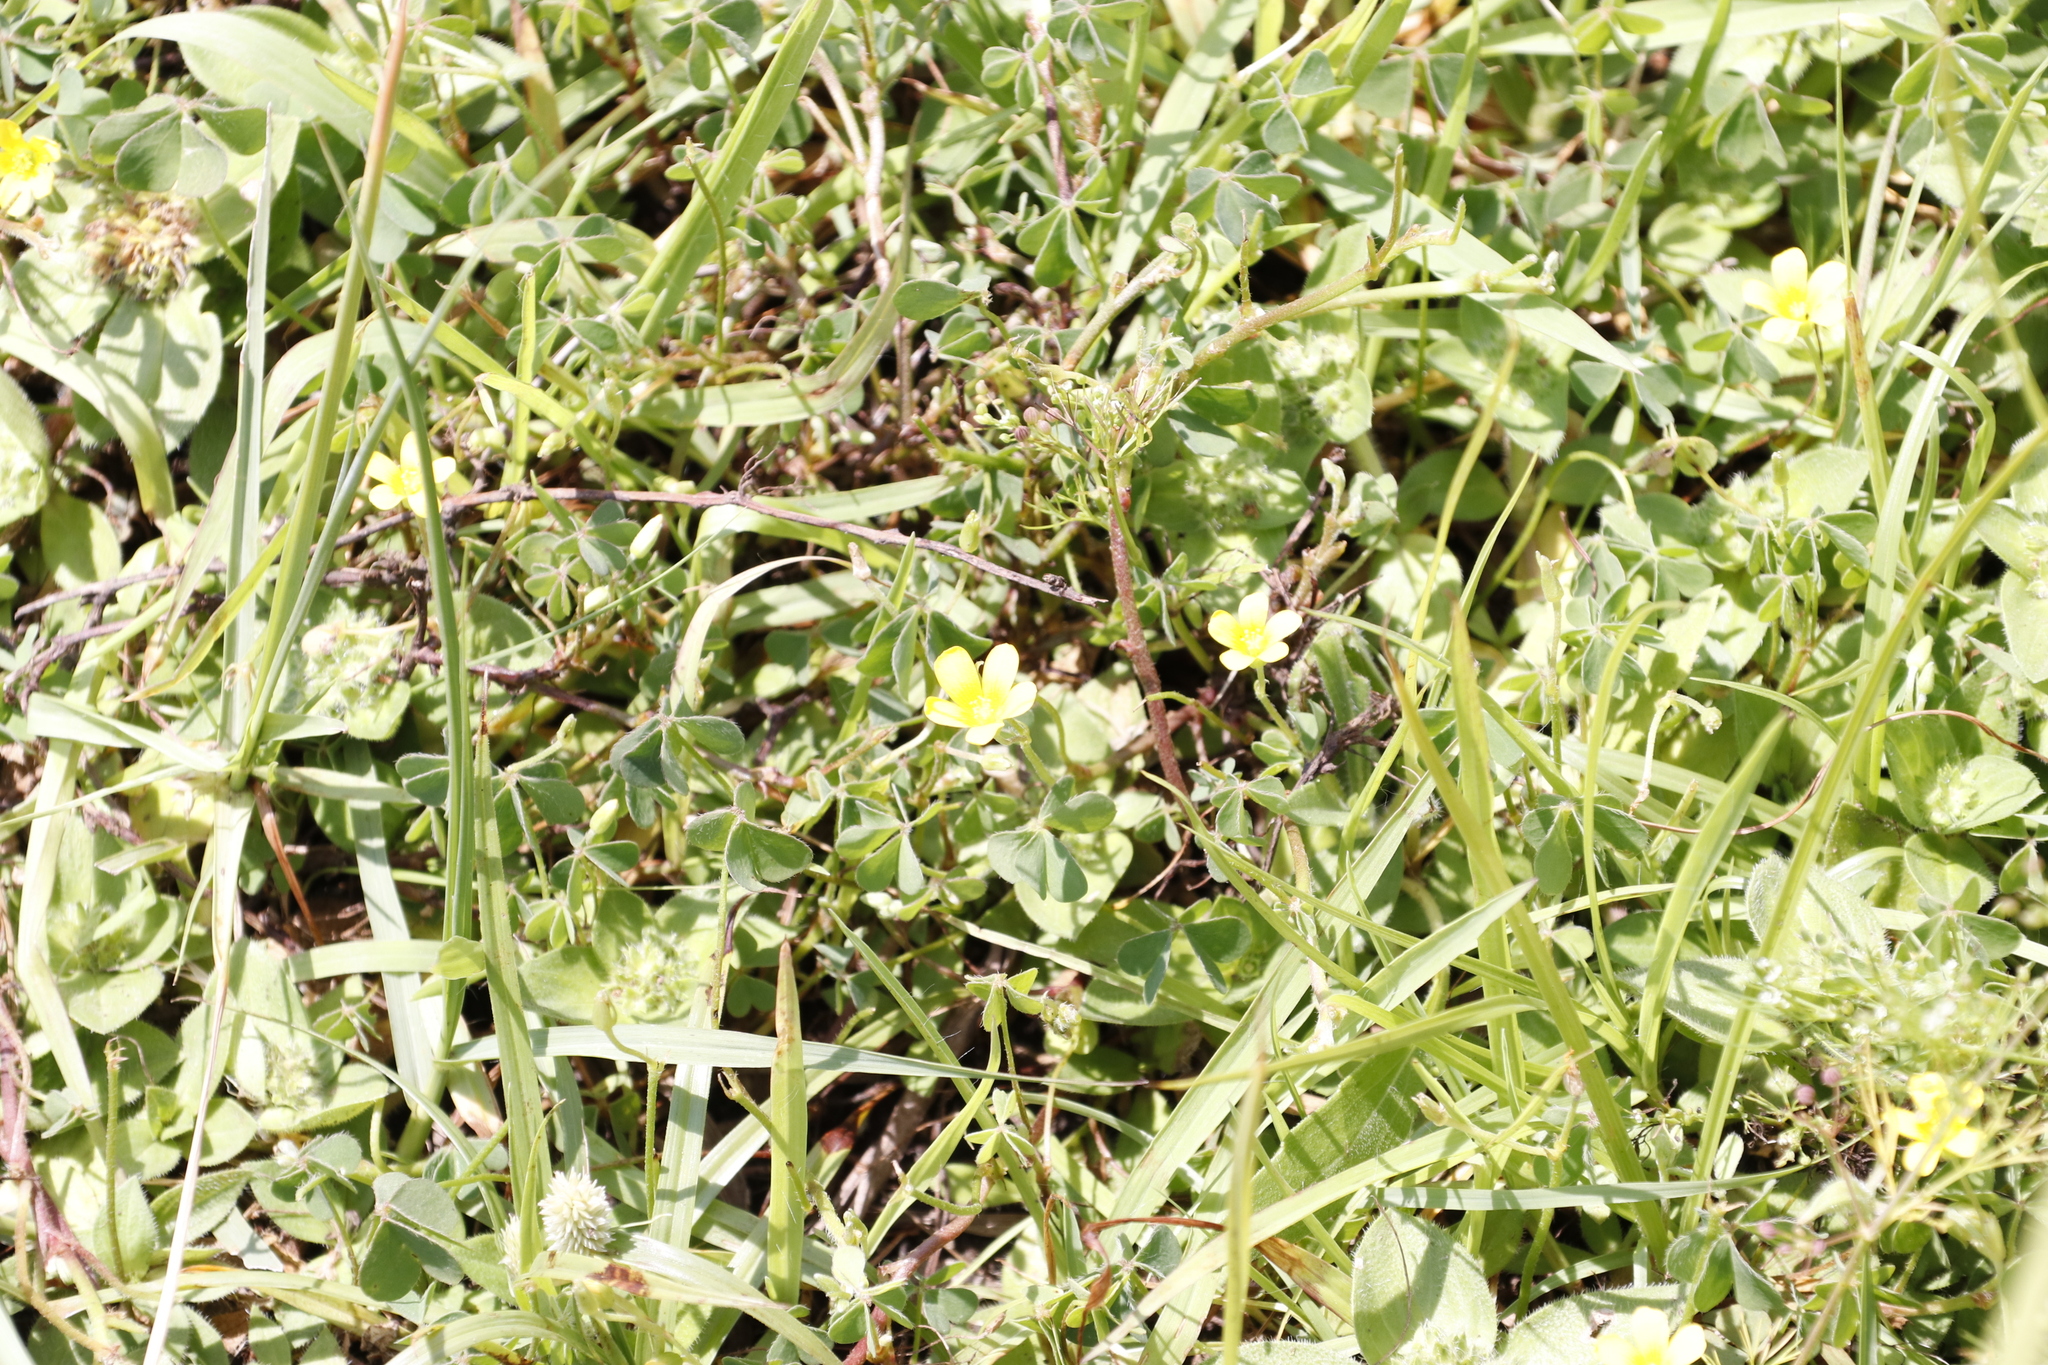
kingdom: Animalia
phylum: Arthropoda
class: Insecta
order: Mantodea
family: Empusidae
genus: Hemiempusa
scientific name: Hemiempusa capensis
